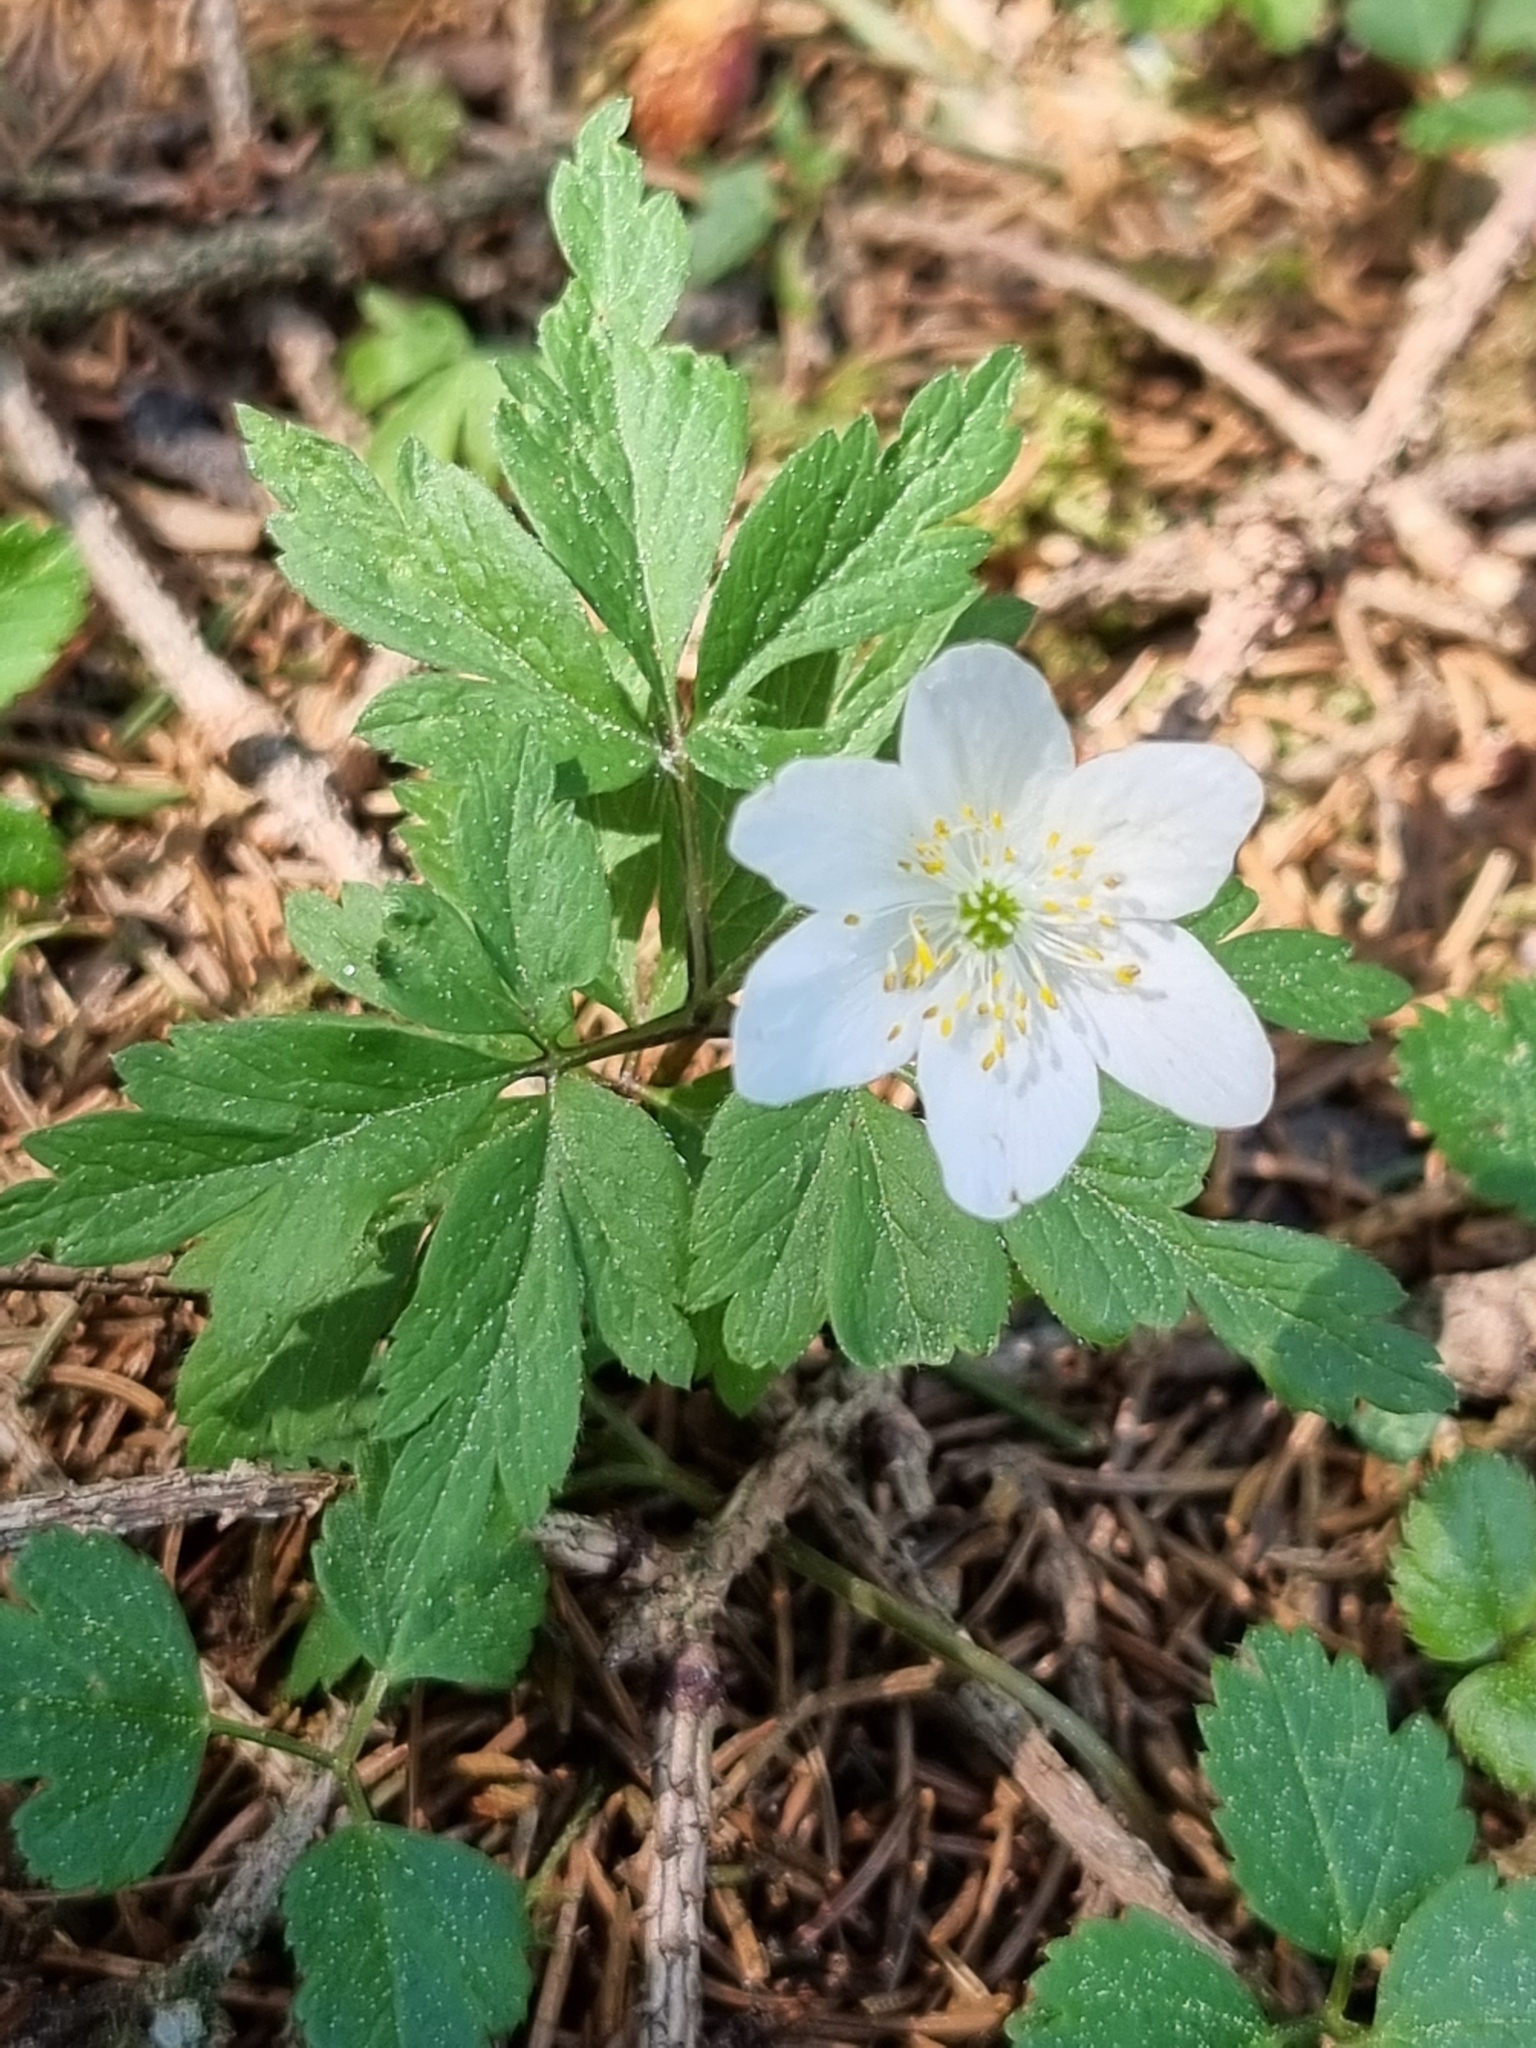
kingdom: Plantae
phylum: Tracheophyta
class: Magnoliopsida
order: Ranunculales
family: Ranunculaceae
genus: Anemone
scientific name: Anemone nemorosa
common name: Wood anemone
